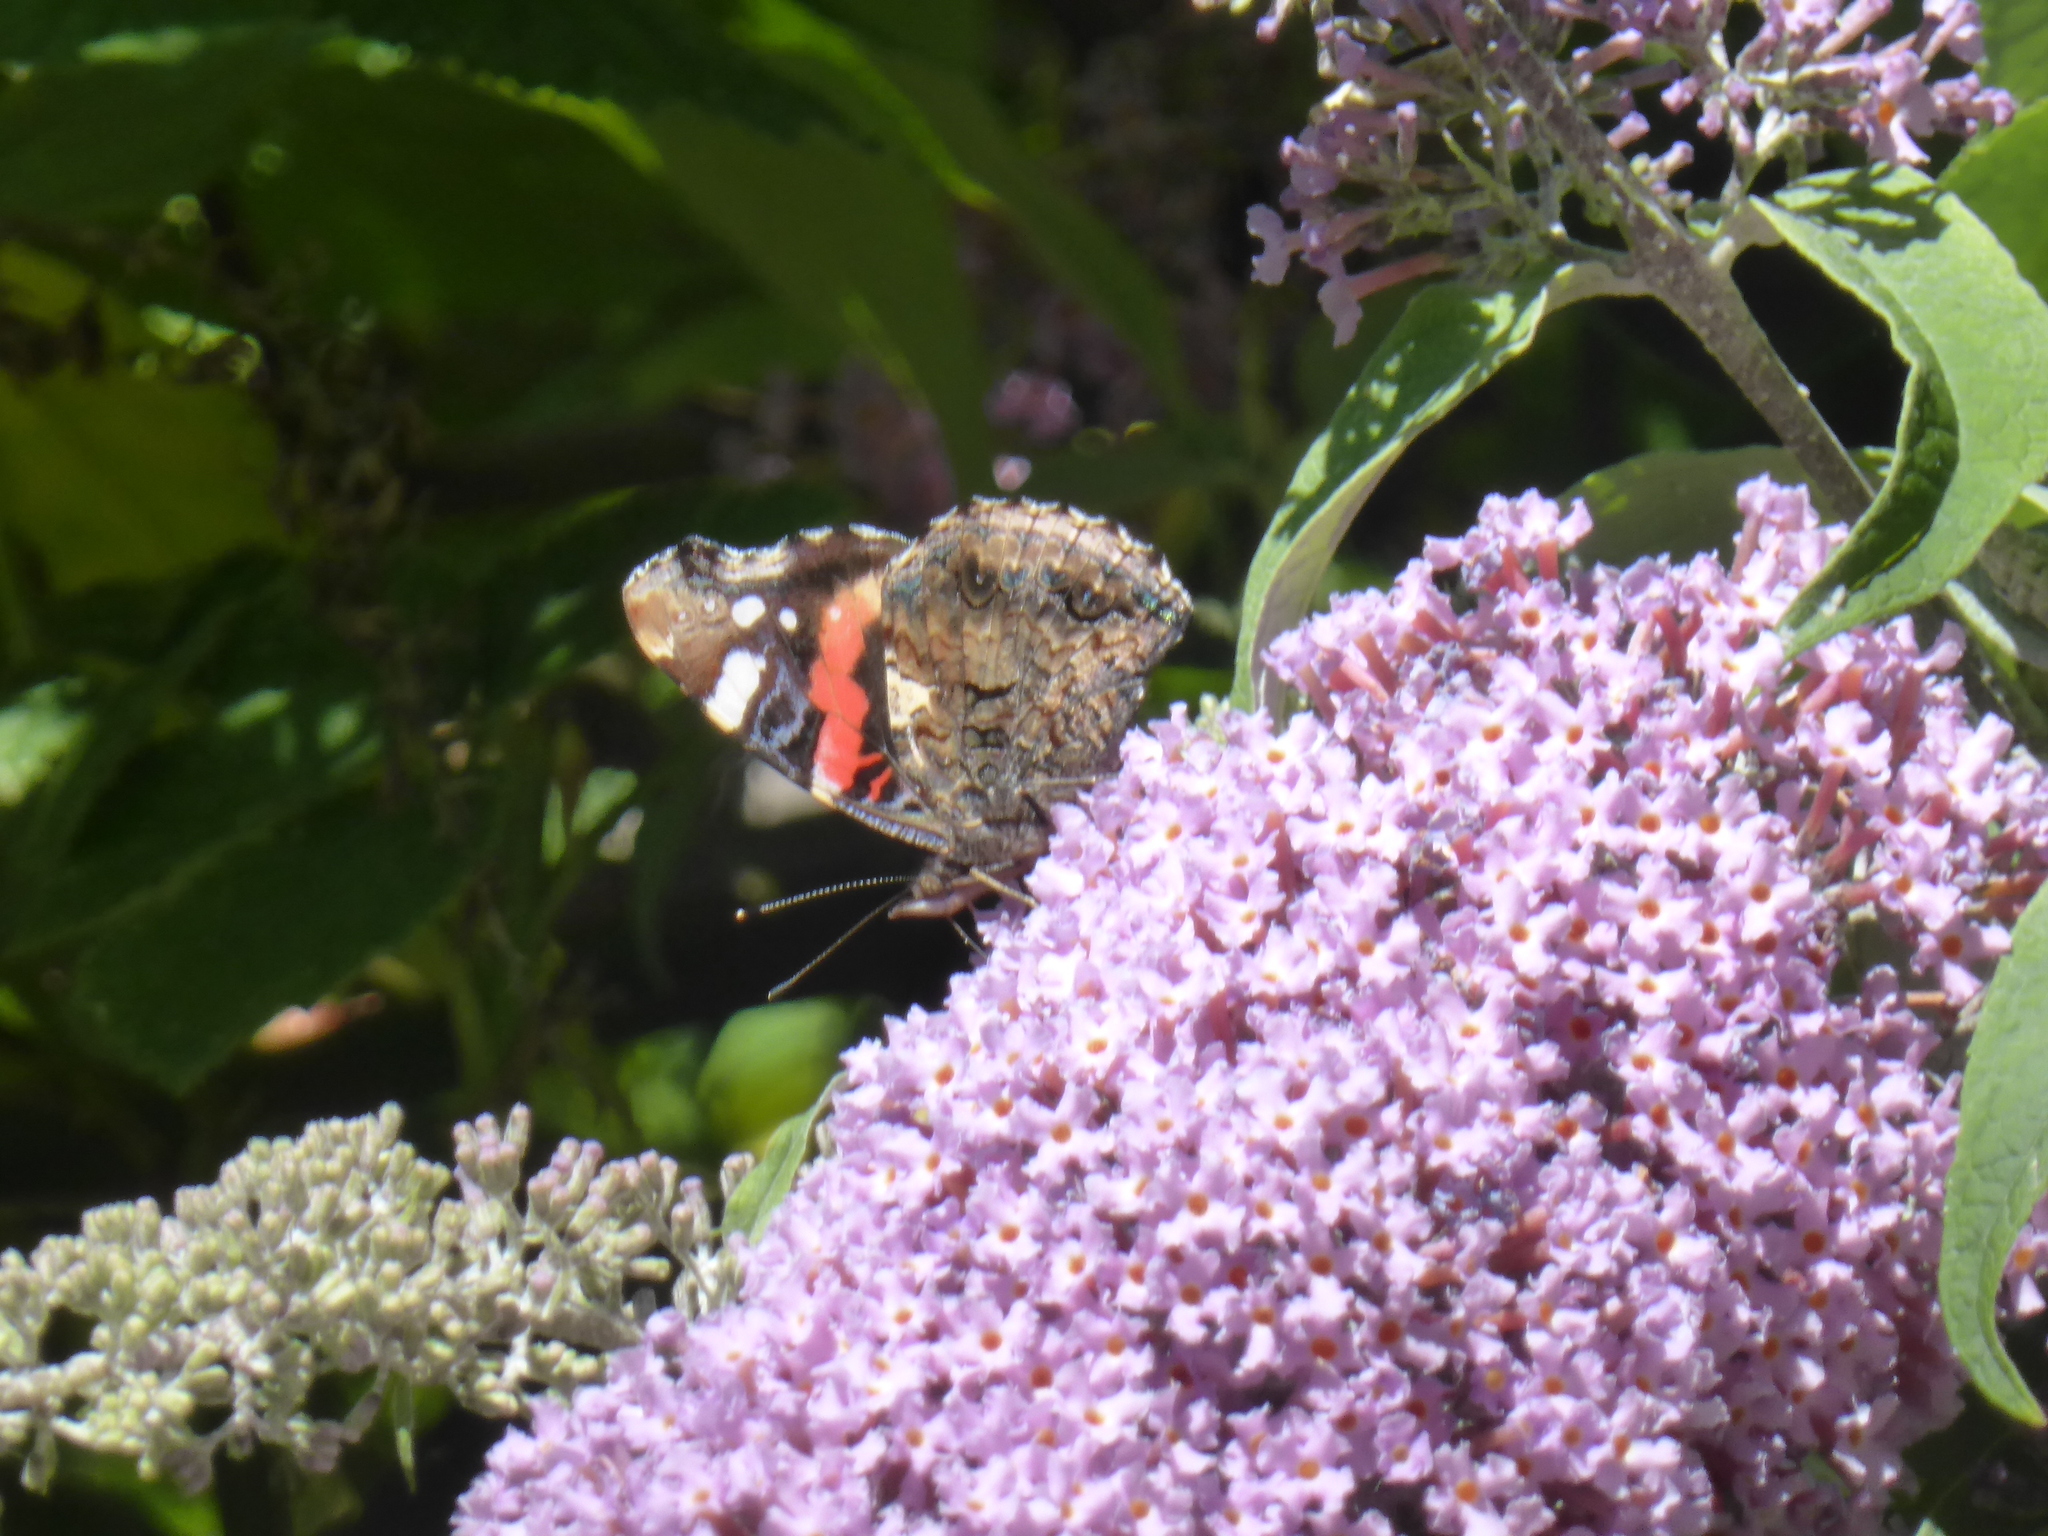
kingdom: Animalia
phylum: Arthropoda
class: Insecta
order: Lepidoptera
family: Nymphalidae
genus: Vanessa
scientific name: Vanessa atalanta
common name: Red admiral
